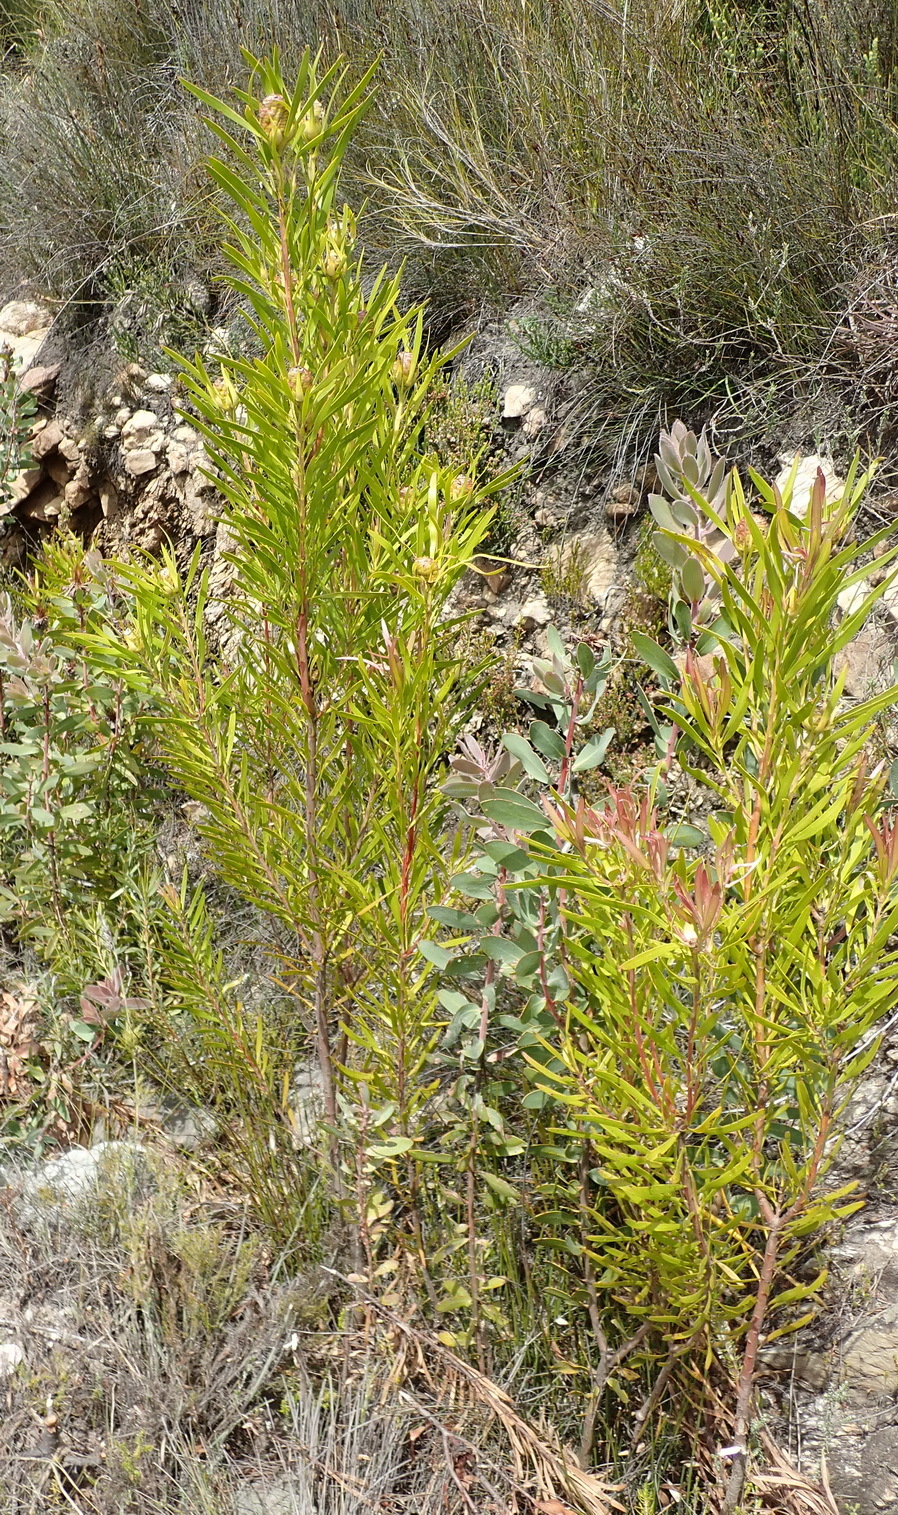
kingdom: Plantae
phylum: Tracheophyta
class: Magnoliopsida
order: Proteales
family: Proteaceae
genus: Leucadendron
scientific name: Leucadendron eucalyptifolium
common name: Gum-leaved conebush
